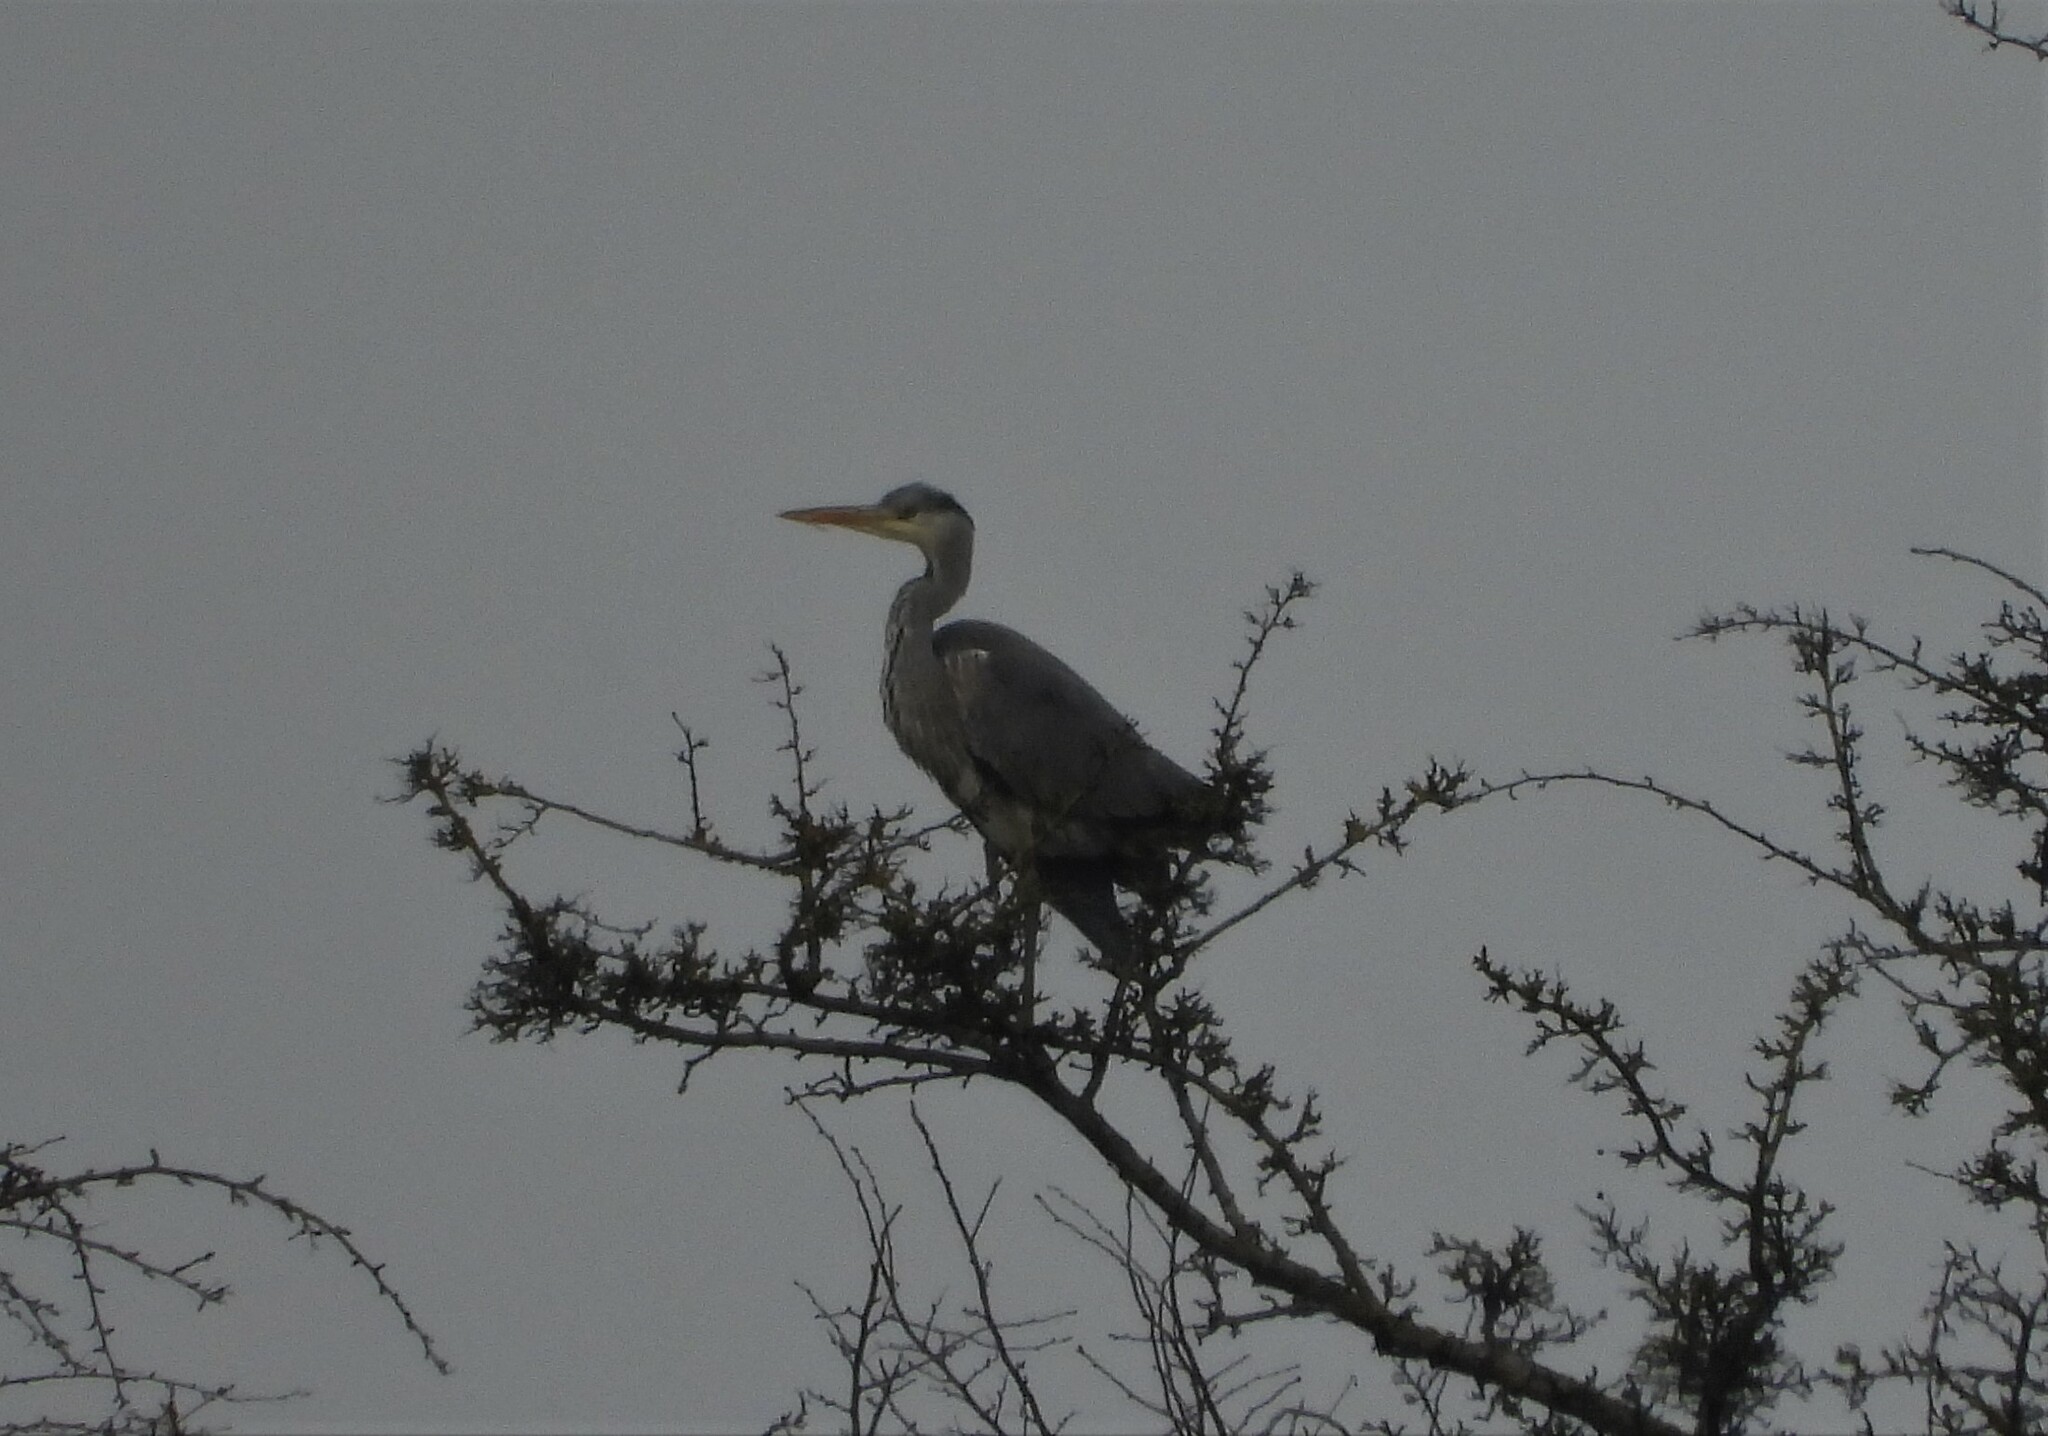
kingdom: Animalia
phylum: Chordata
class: Aves
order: Pelecaniformes
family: Ardeidae
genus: Ardea
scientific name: Ardea cinerea
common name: Grey heron
